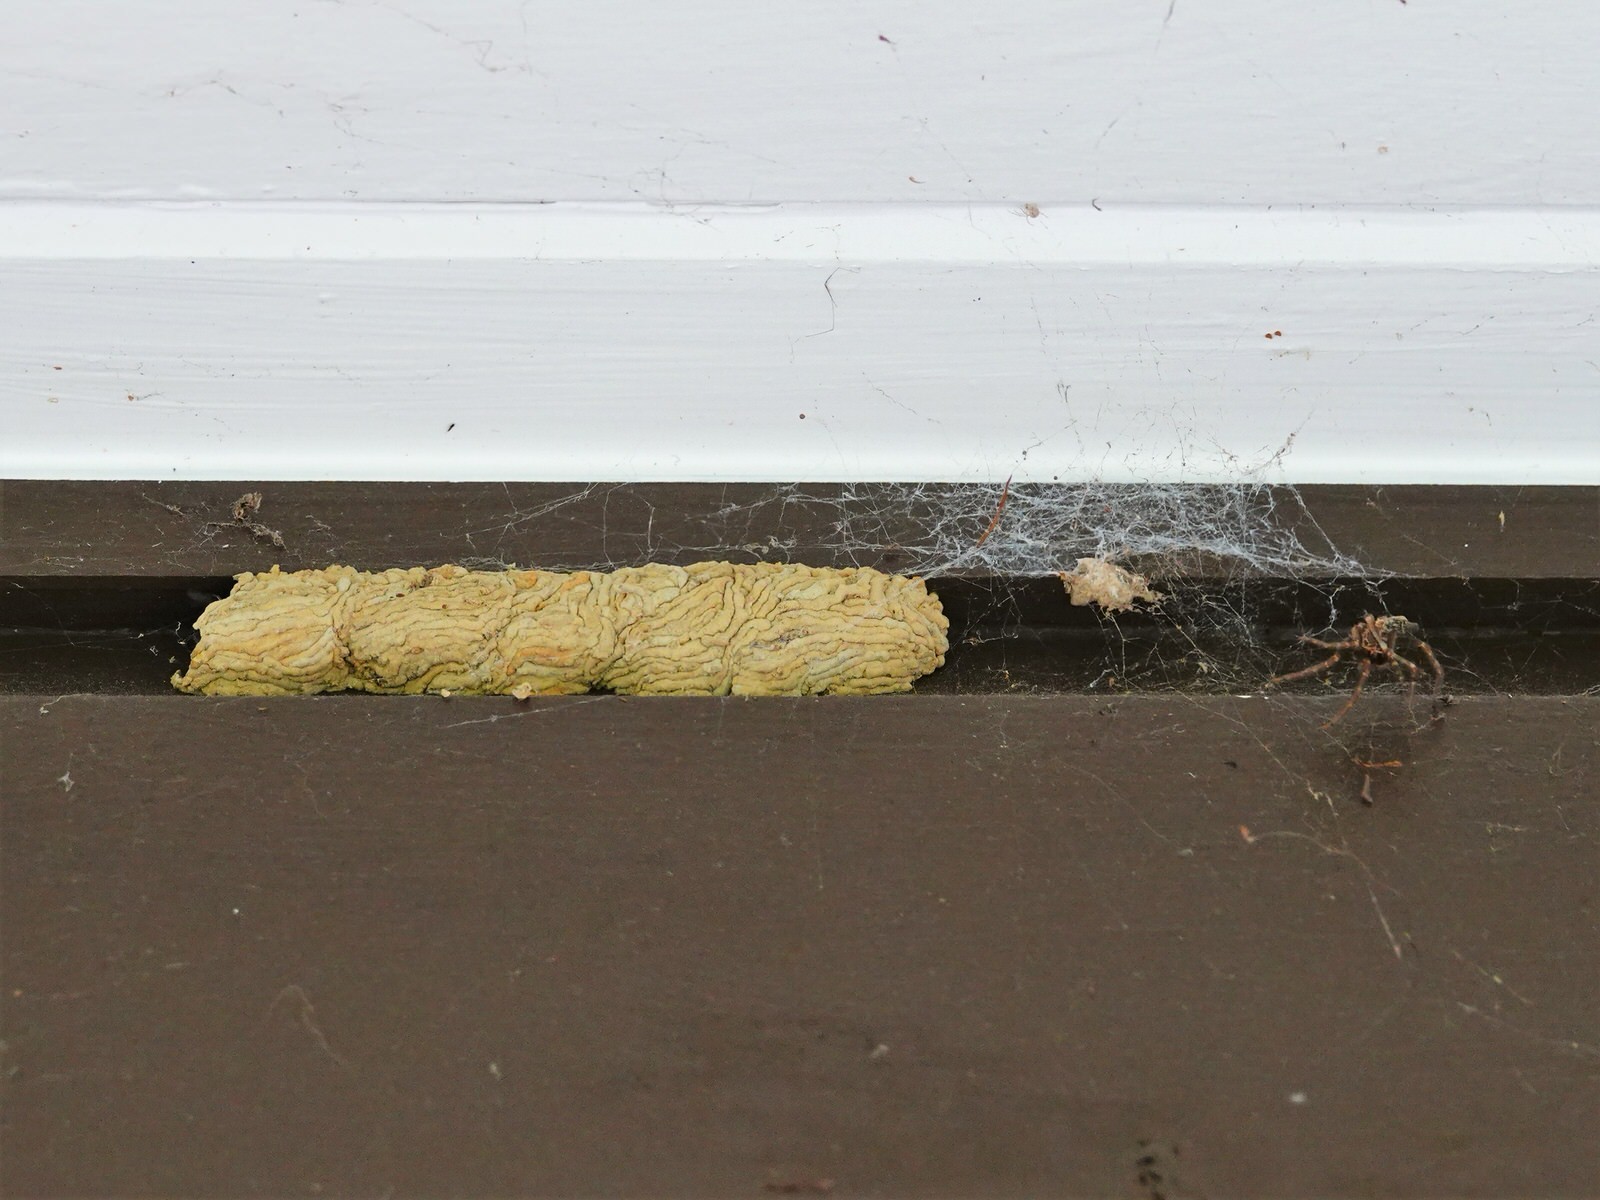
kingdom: Animalia
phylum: Arthropoda
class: Insecta
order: Hymenoptera
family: Crabronidae
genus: Pison
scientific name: Pison spinolae
